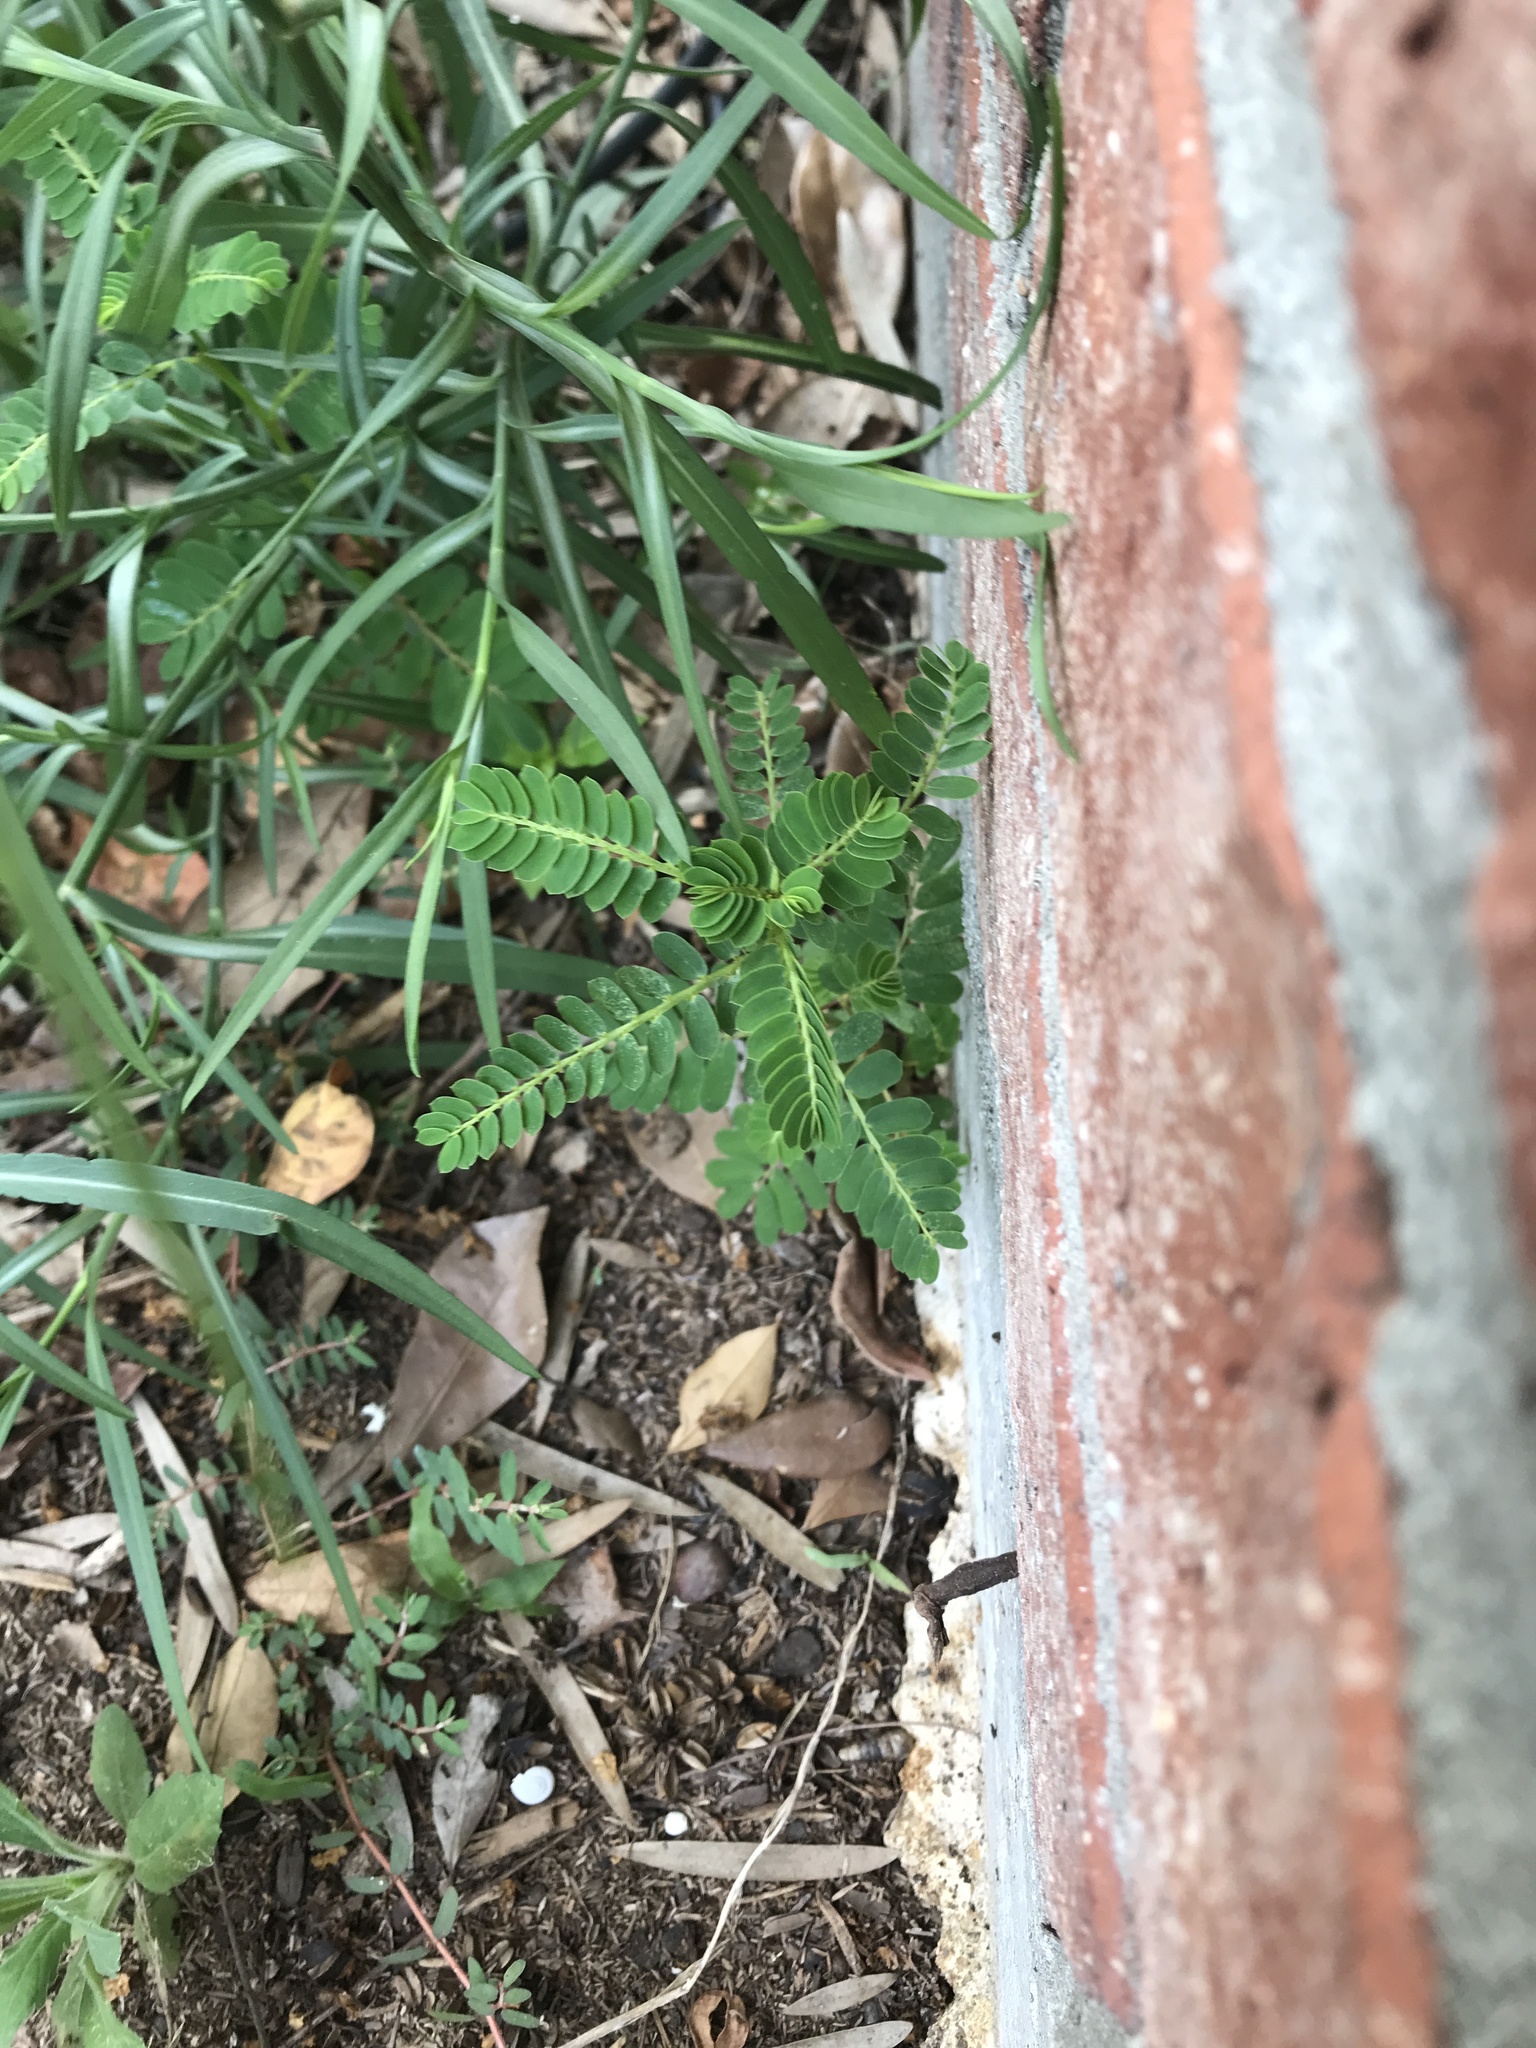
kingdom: Plantae
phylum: Tracheophyta
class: Magnoliopsida
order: Malpighiales
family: Phyllanthaceae
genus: Phyllanthus
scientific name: Phyllanthus urinaria
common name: Chamber bitter
